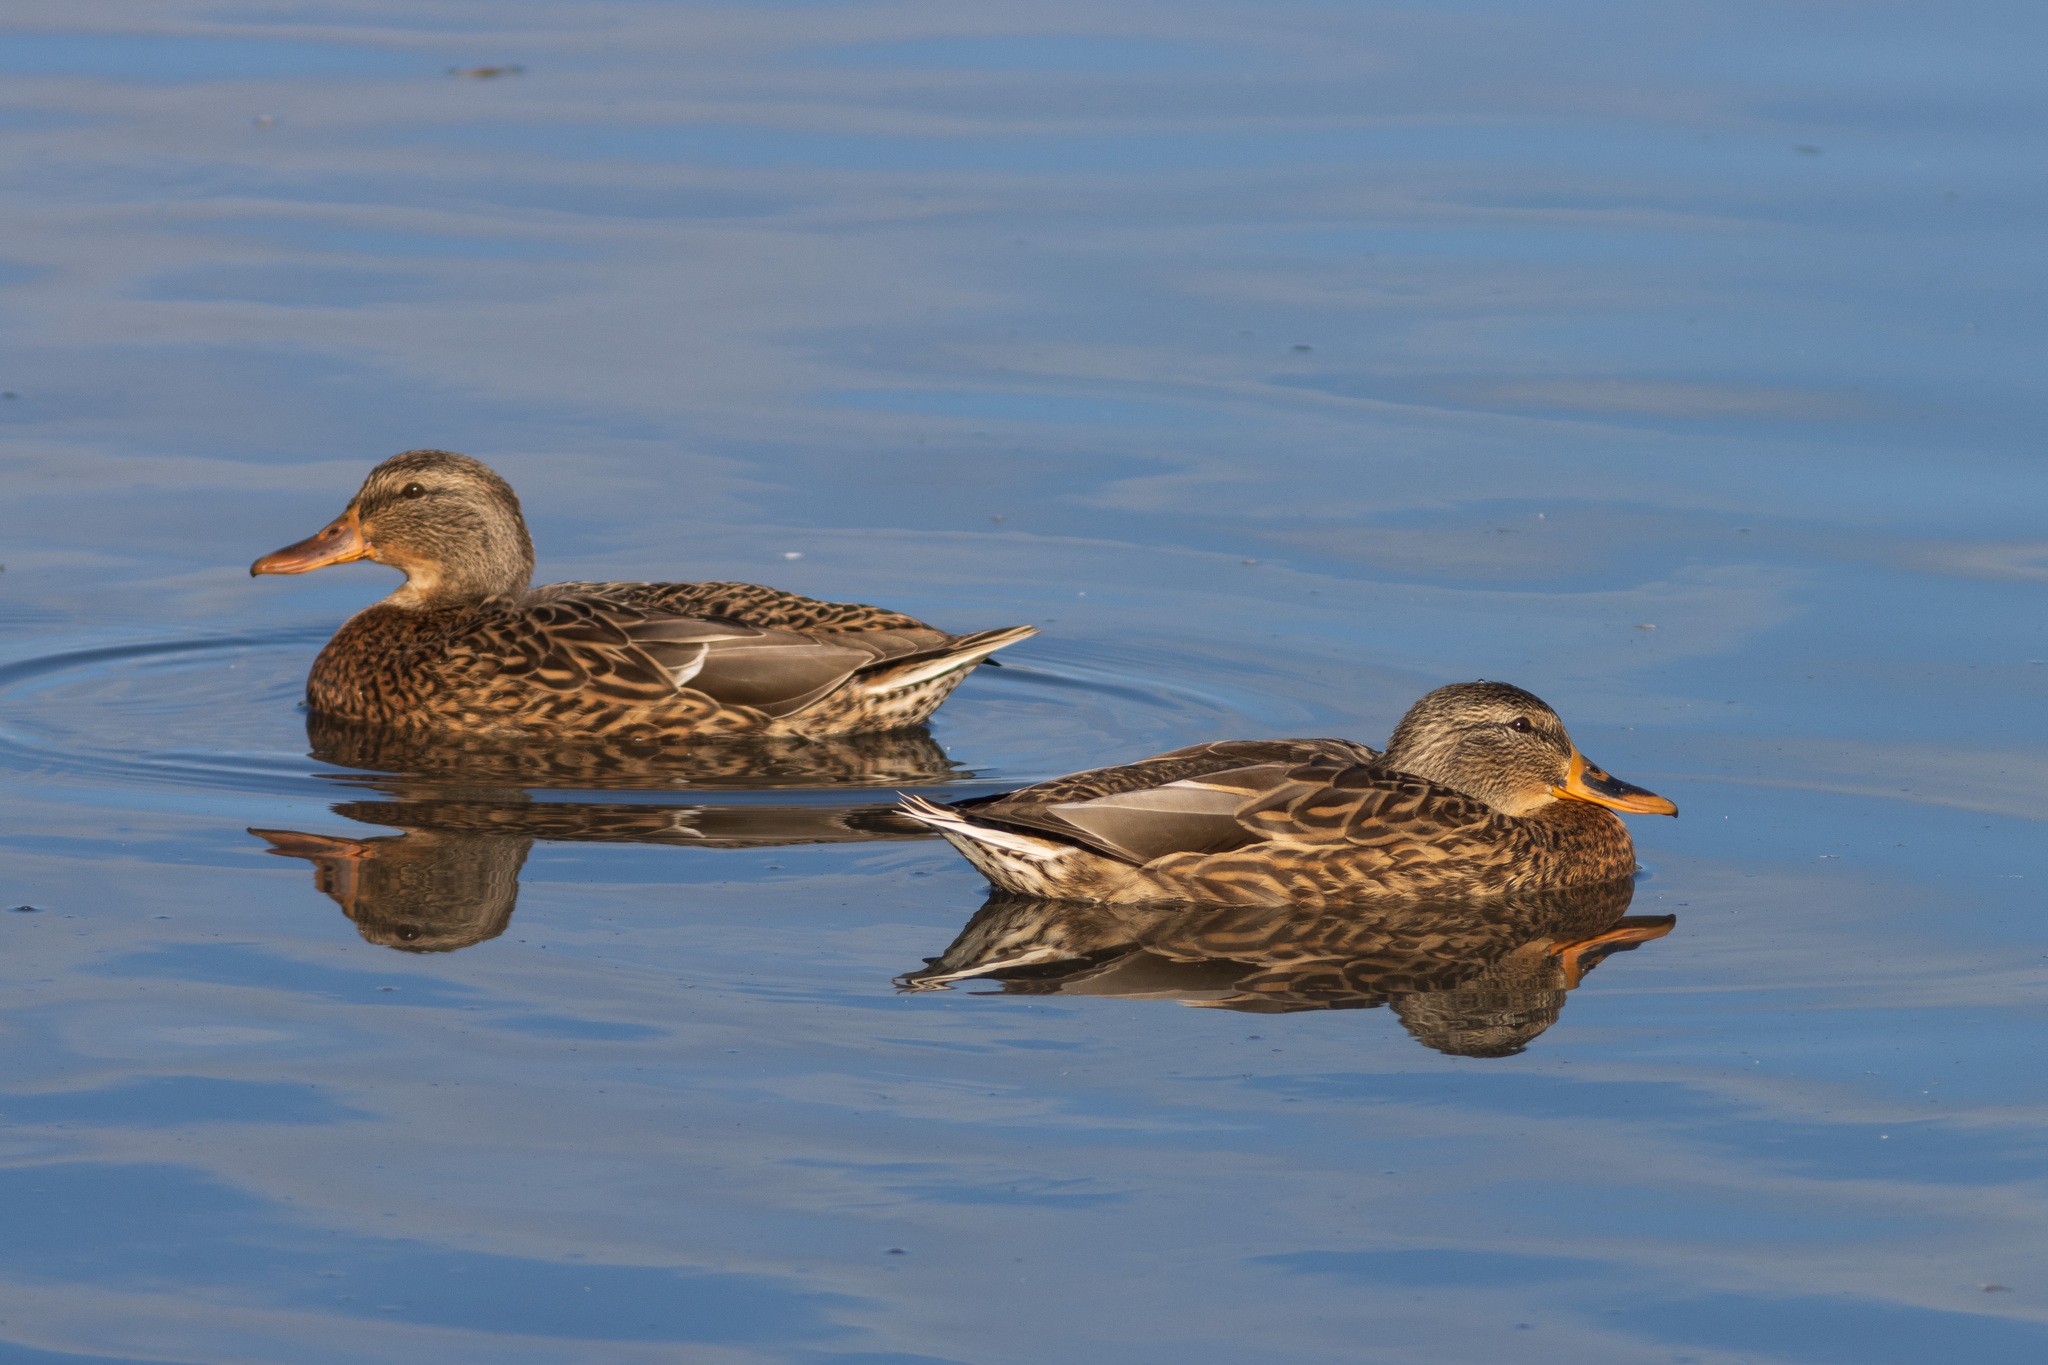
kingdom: Animalia
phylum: Chordata
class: Aves
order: Anseriformes
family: Anatidae
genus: Anas
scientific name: Anas platyrhynchos
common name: Mallard
